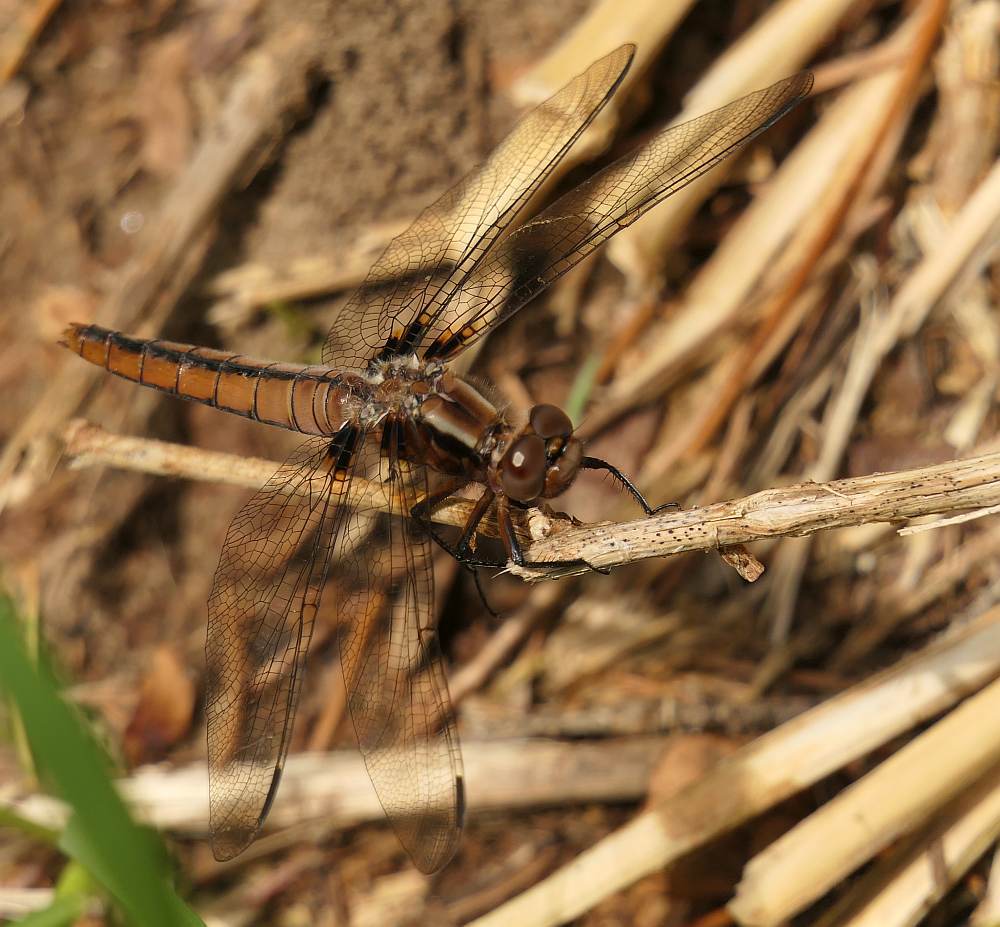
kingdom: Animalia
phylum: Arthropoda
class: Insecta
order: Odonata
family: Libellulidae
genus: Ladona
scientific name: Ladona julia
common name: Chalk-fronted corporal
